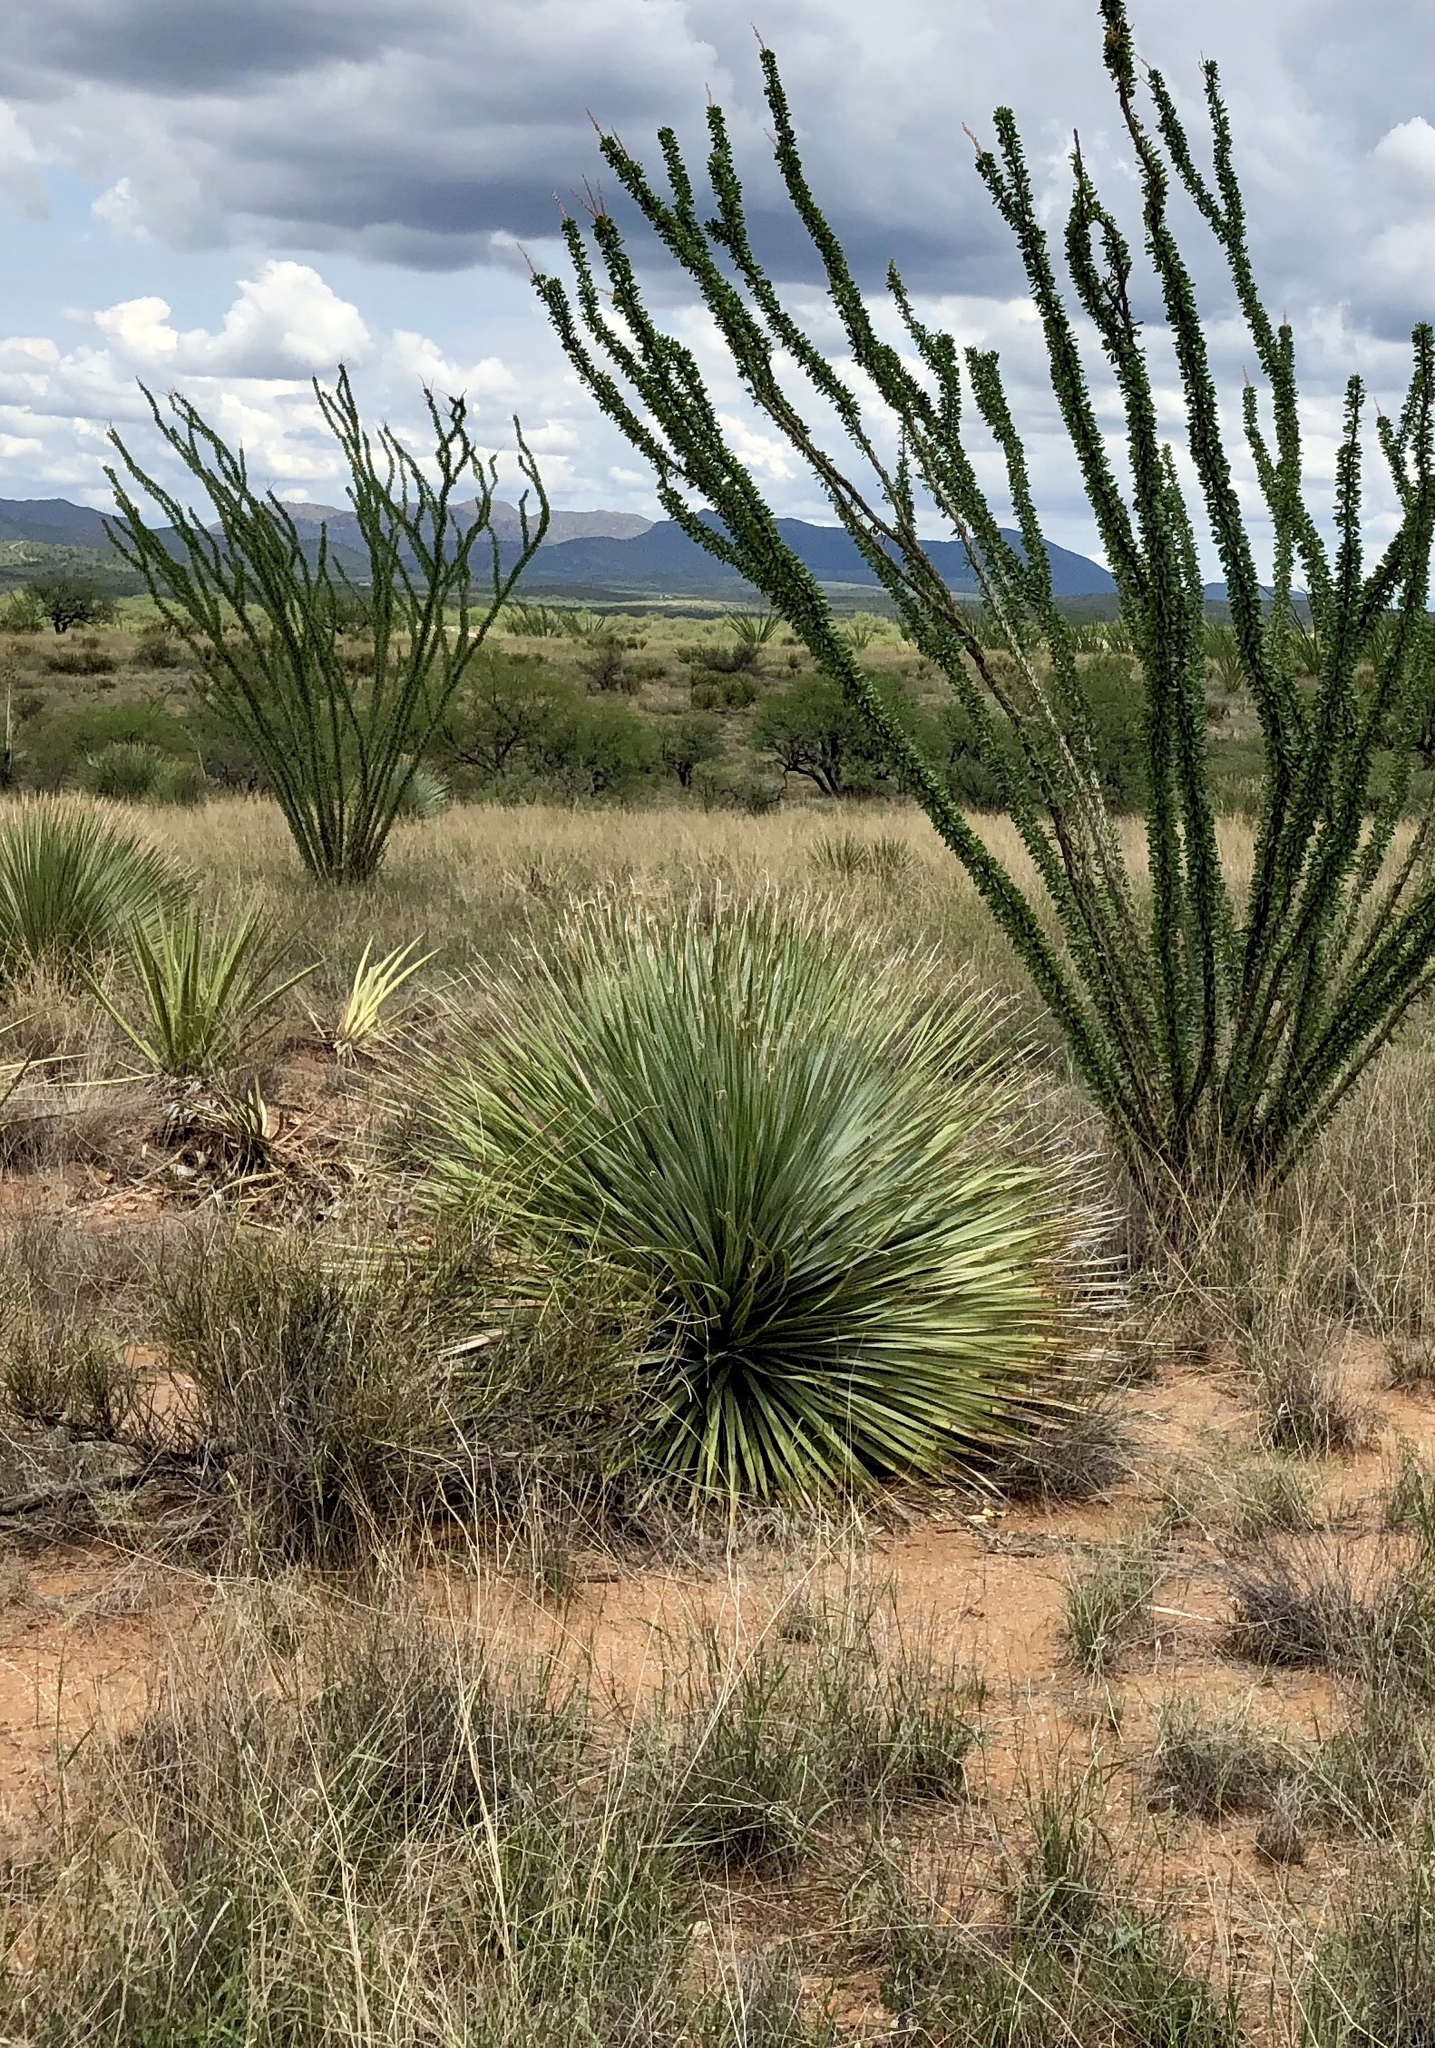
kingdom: Plantae
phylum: Tracheophyta
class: Liliopsida
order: Asparagales
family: Asparagaceae
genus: Dasylirion
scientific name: Dasylirion wheeleri
